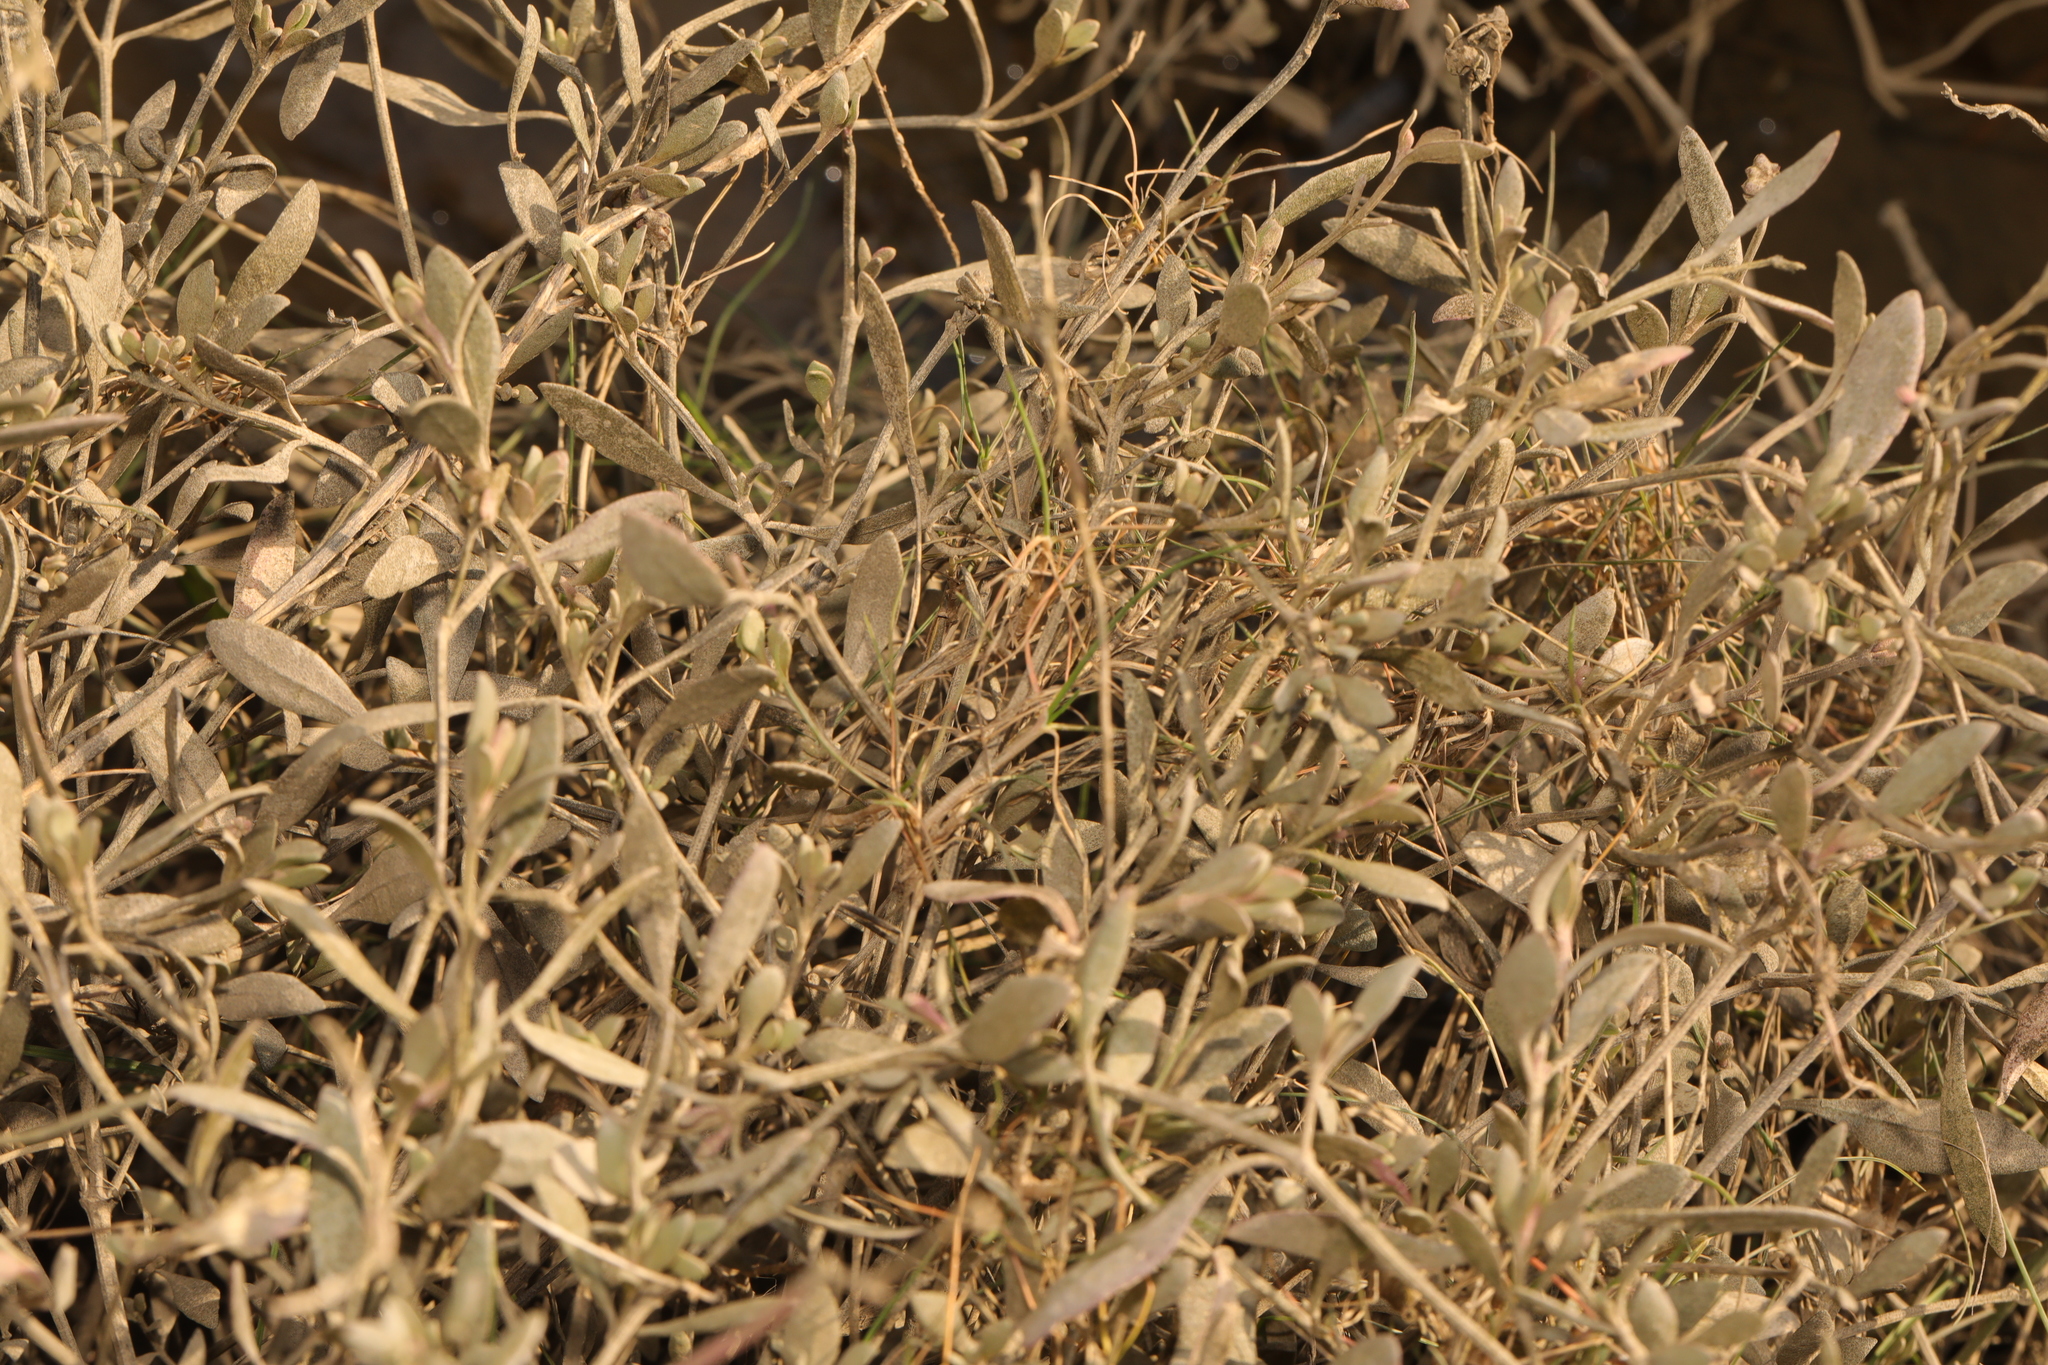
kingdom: Plantae
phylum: Tracheophyta
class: Magnoliopsida
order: Caryophyllales
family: Amaranthaceae
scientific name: Amaranthaceae
